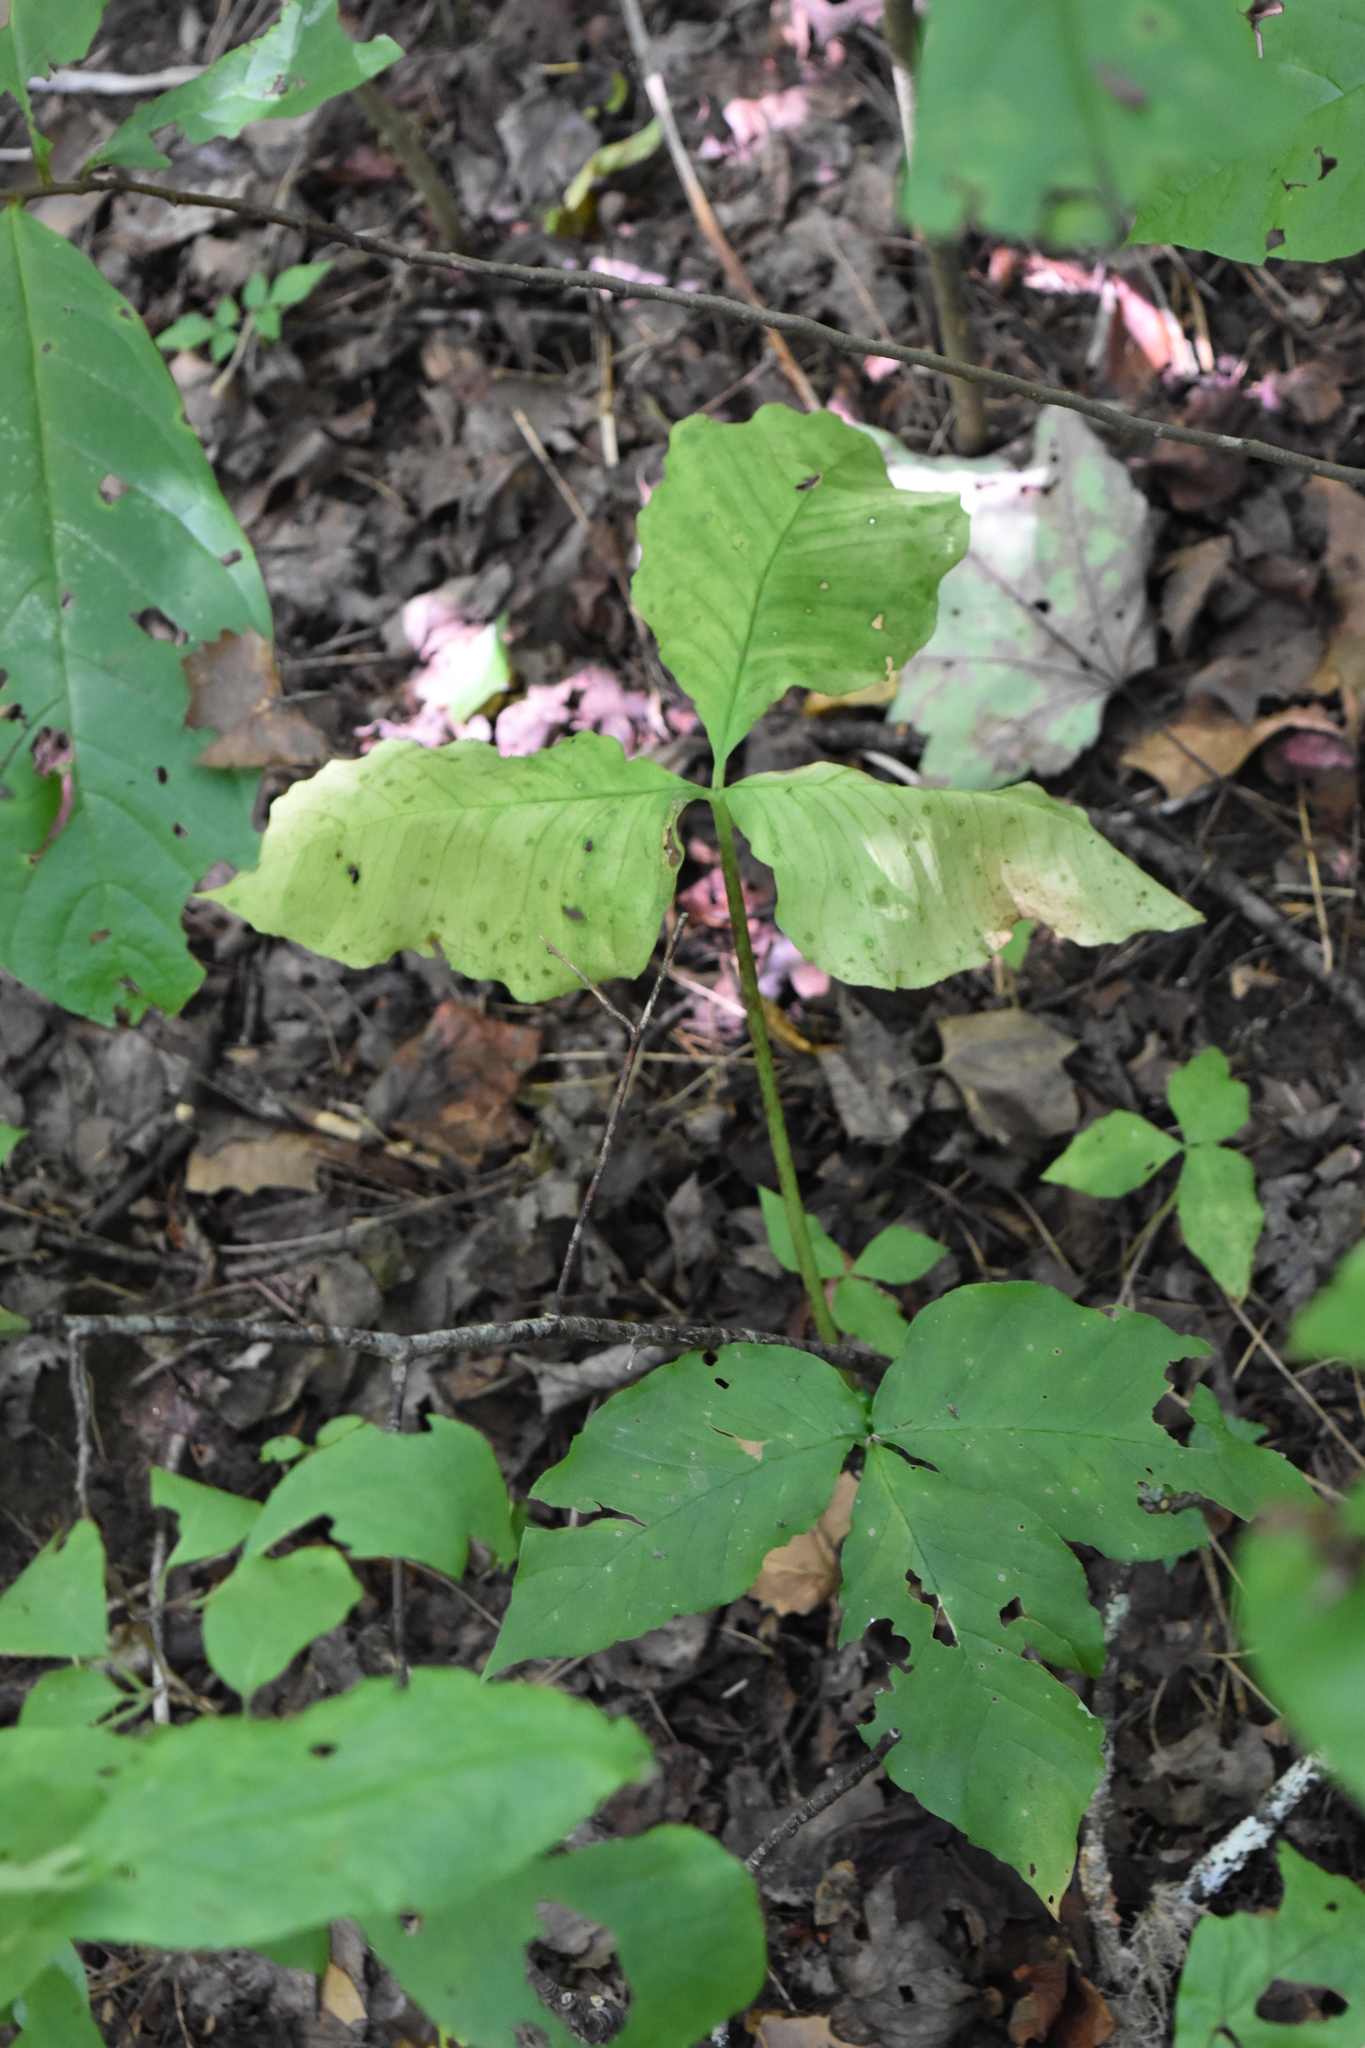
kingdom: Plantae
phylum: Tracheophyta
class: Liliopsida
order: Alismatales
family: Araceae
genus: Arisaema
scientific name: Arisaema triphyllum
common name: Jack-in-the-pulpit
